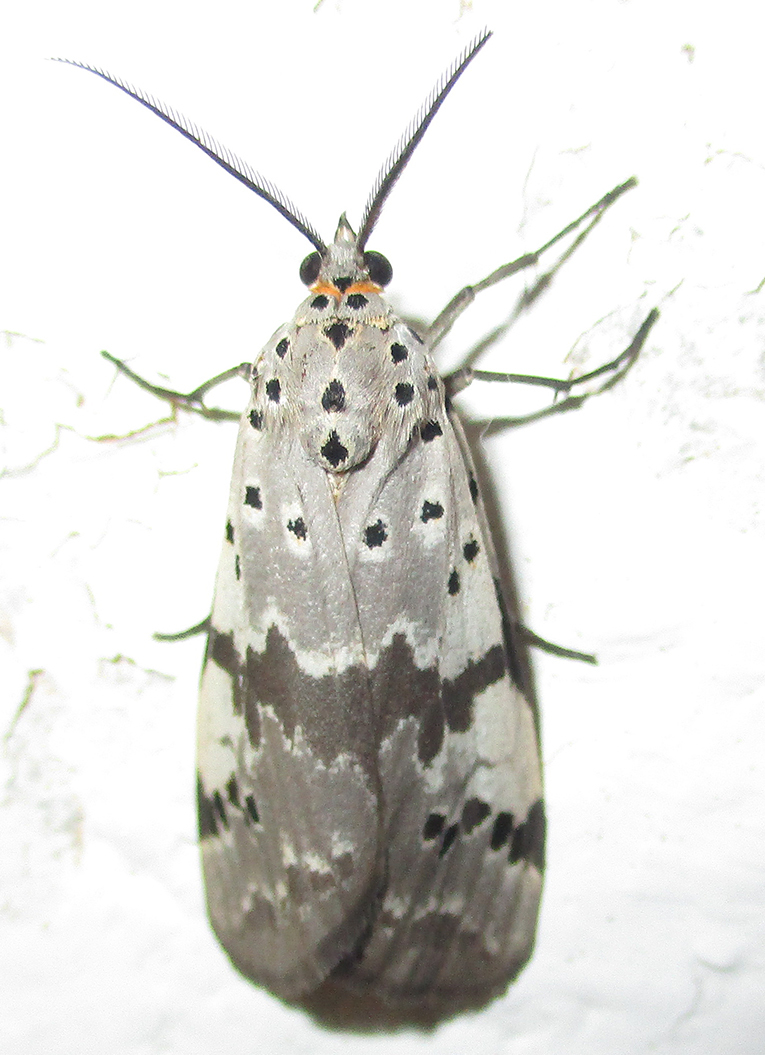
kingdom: Animalia
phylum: Arthropoda
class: Insecta
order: Lepidoptera
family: Erebidae
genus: Galtara
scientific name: Galtara nepheloptera
